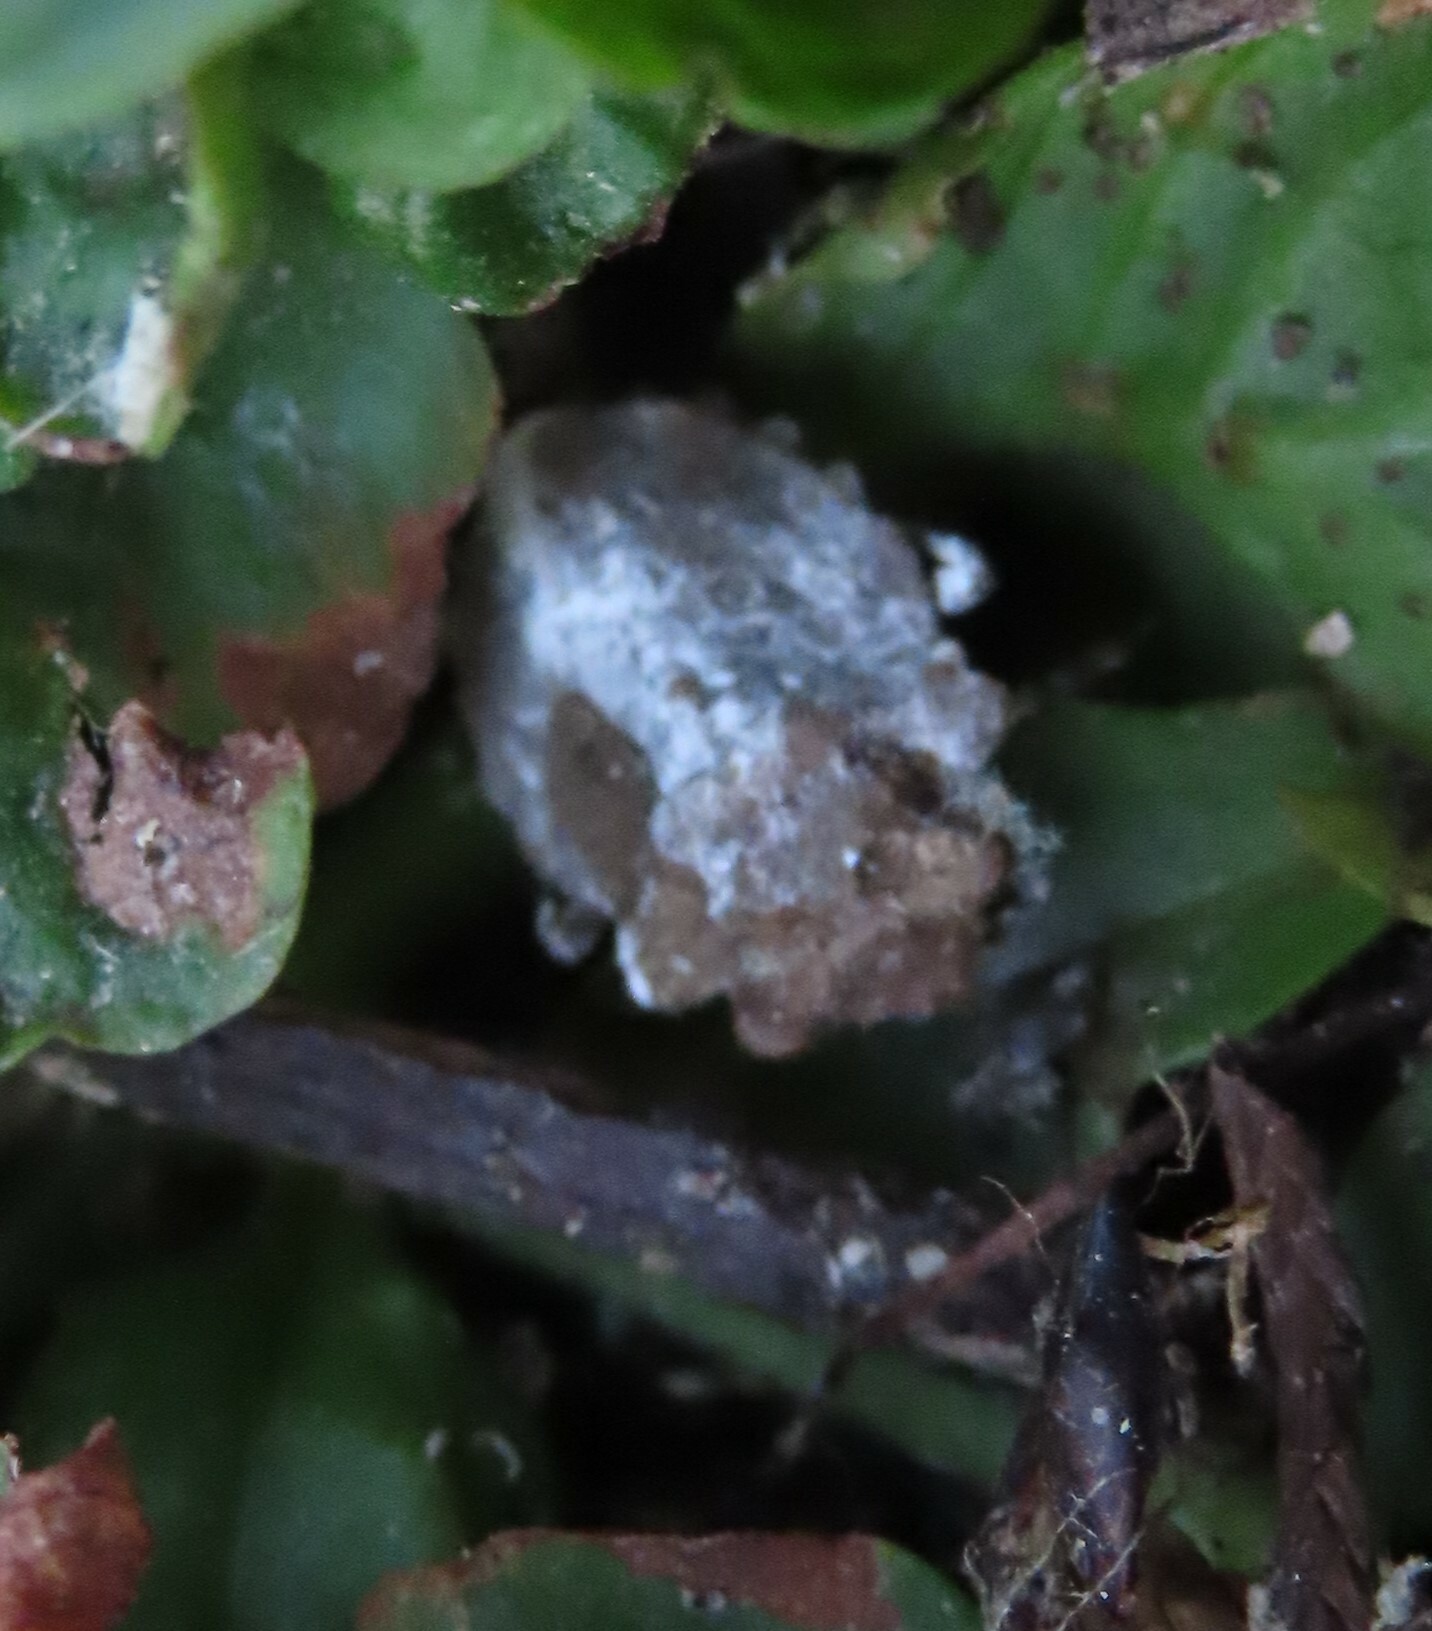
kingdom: Animalia
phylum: Arthropoda
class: Insecta
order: Hemiptera
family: Gelastocoridae
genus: Gelastocoris
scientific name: Gelastocoris oculatus
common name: Toad bug
